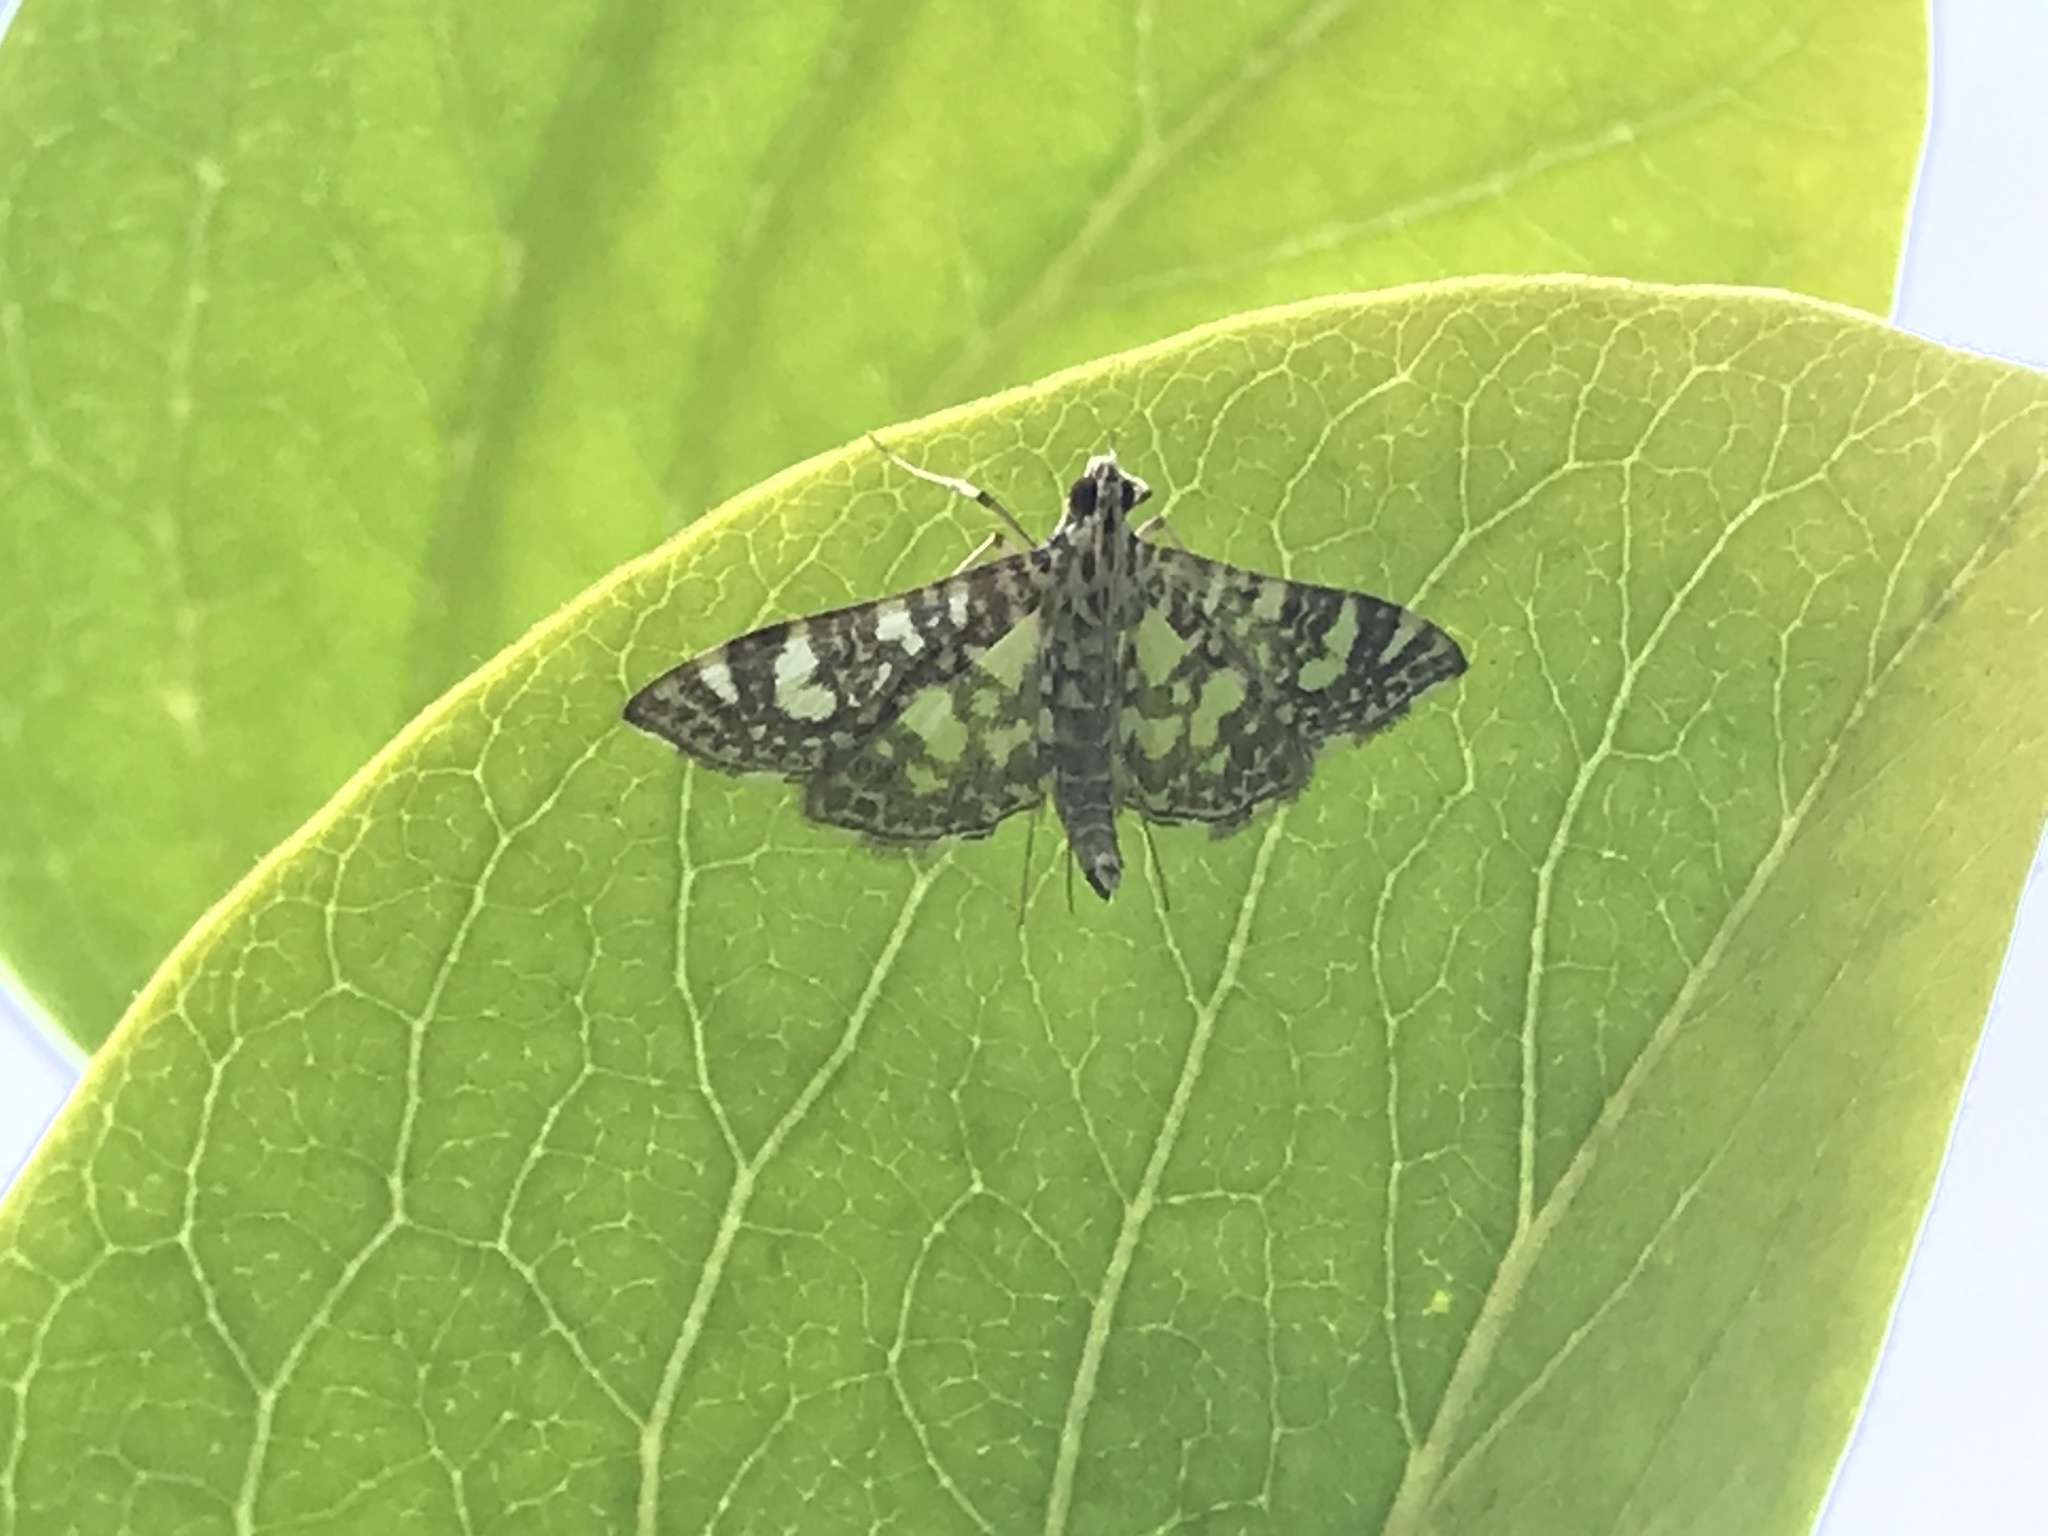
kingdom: Animalia
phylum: Arthropoda
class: Insecta
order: Lepidoptera
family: Crambidae
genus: Glyphodes
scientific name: Glyphodes onychinalis
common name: Swan plant moth
